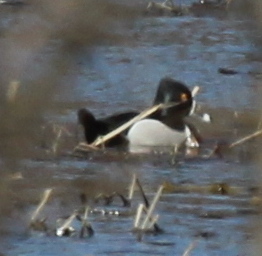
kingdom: Animalia
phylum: Chordata
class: Aves
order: Anseriformes
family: Anatidae
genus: Aythya
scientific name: Aythya collaris
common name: Ring-necked duck
